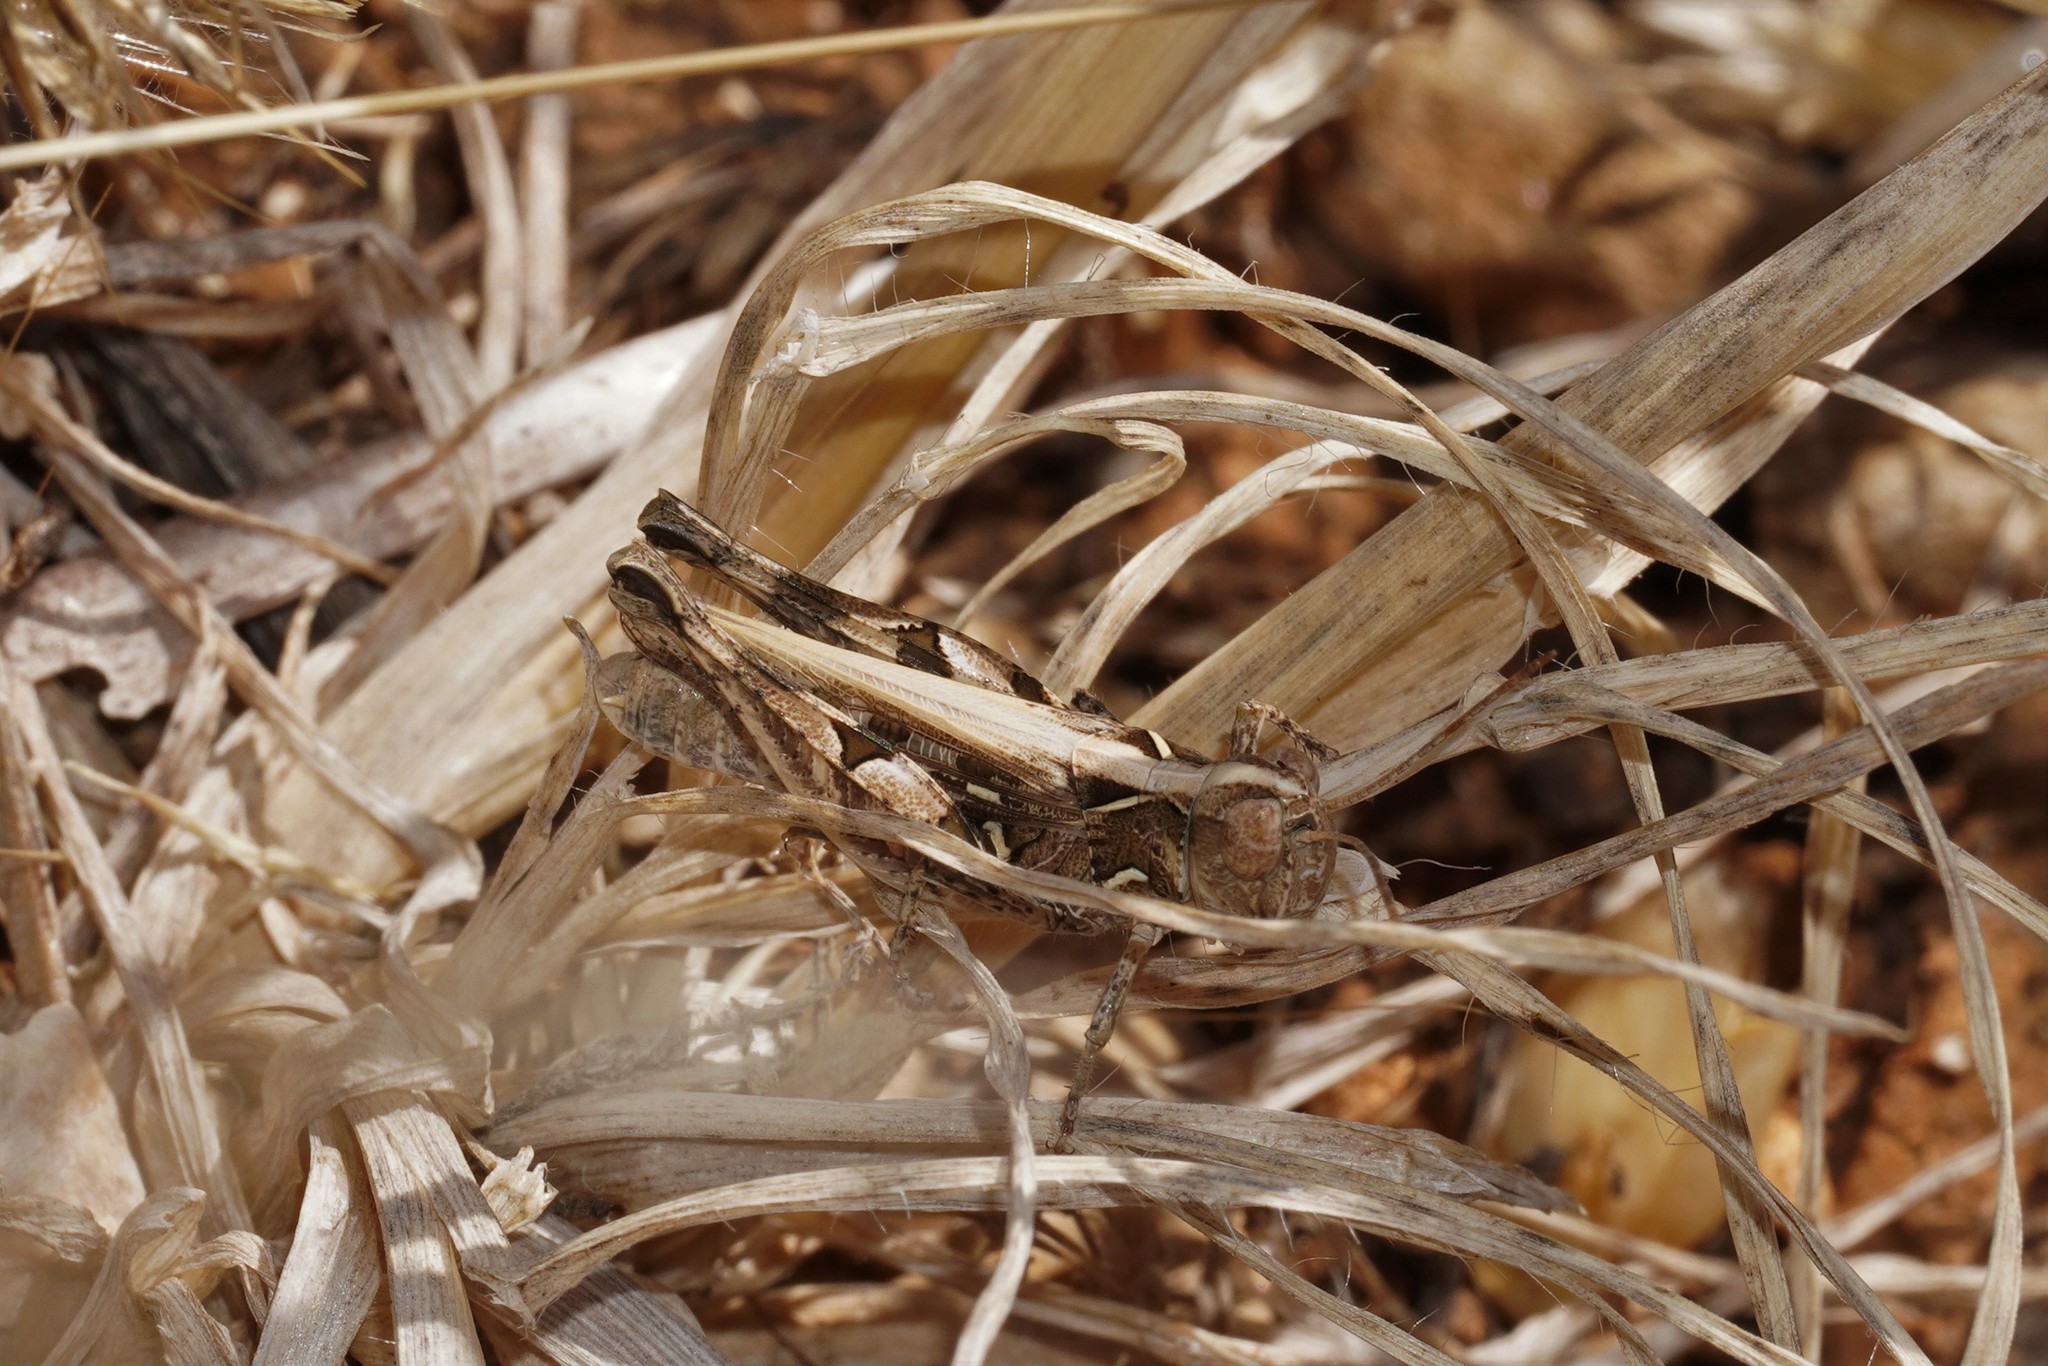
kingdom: Animalia
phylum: Arthropoda
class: Insecta
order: Orthoptera
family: Acrididae
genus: Dociostaurus
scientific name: Dociostaurus jagoi
